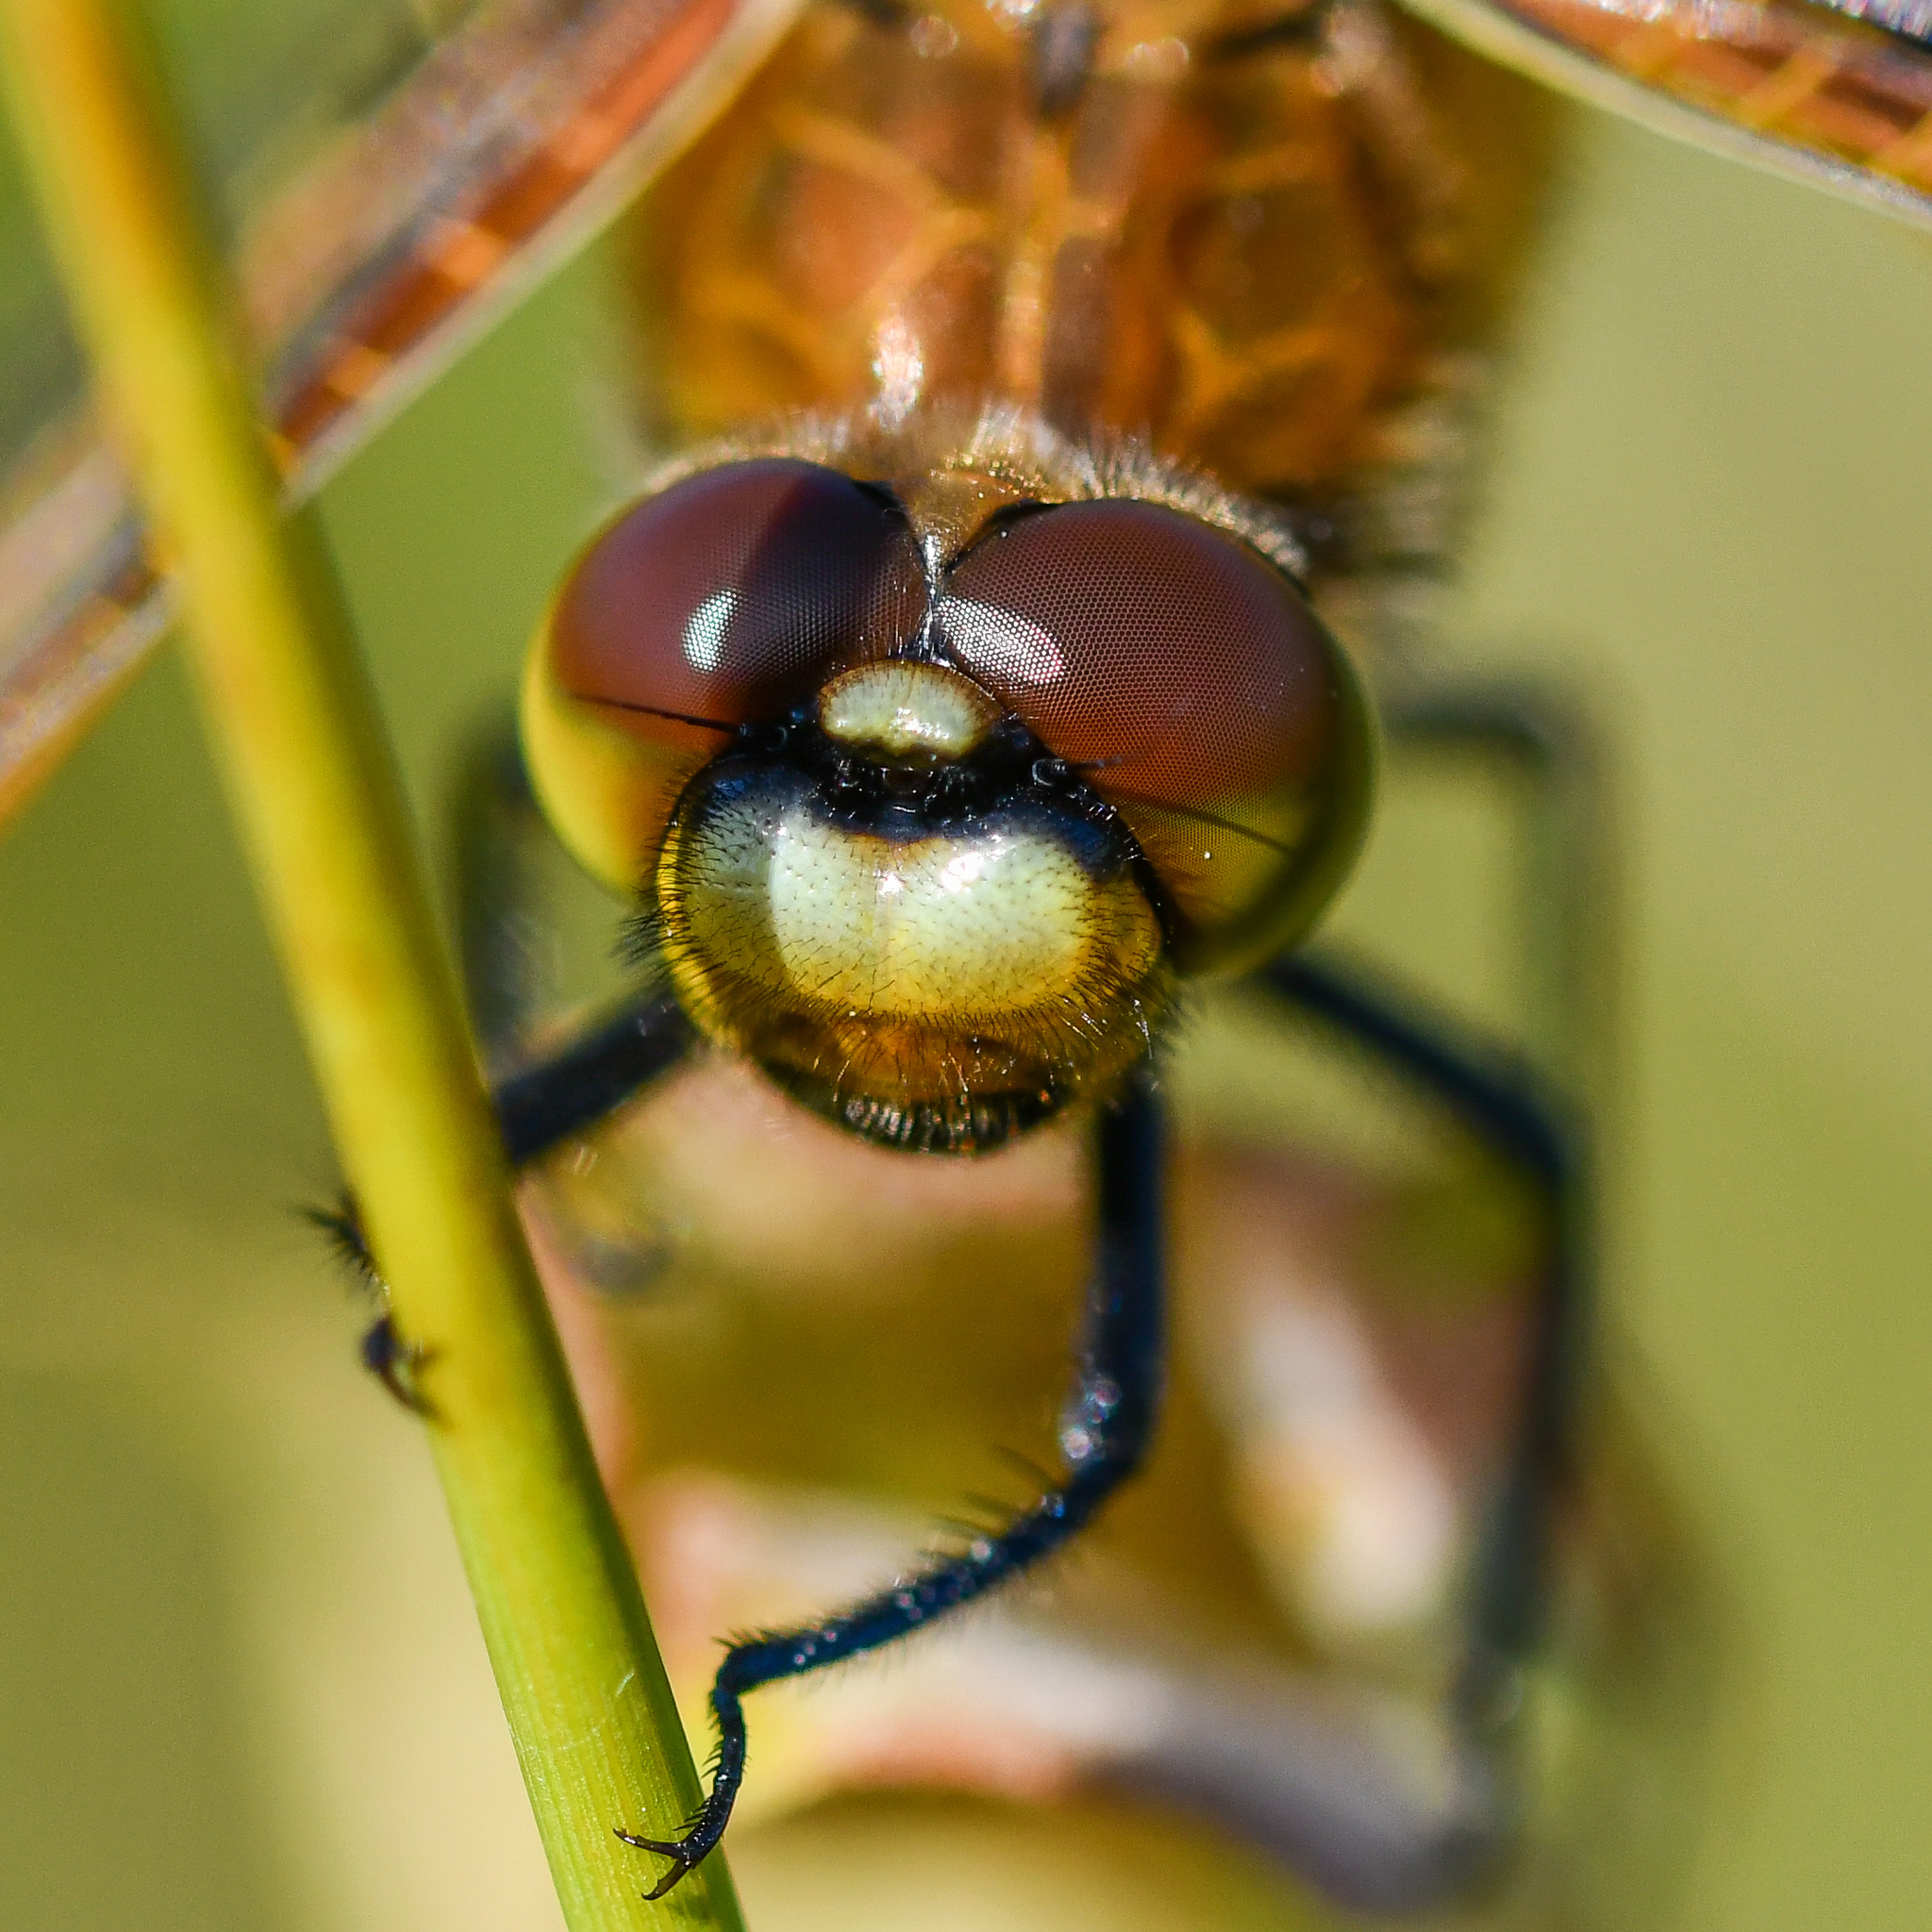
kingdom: Animalia
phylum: Arthropoda
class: Insecta
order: Odonata
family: Libellulidae
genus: Libellula
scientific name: Libellula quadrimaculata
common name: Four-spotted chaser
